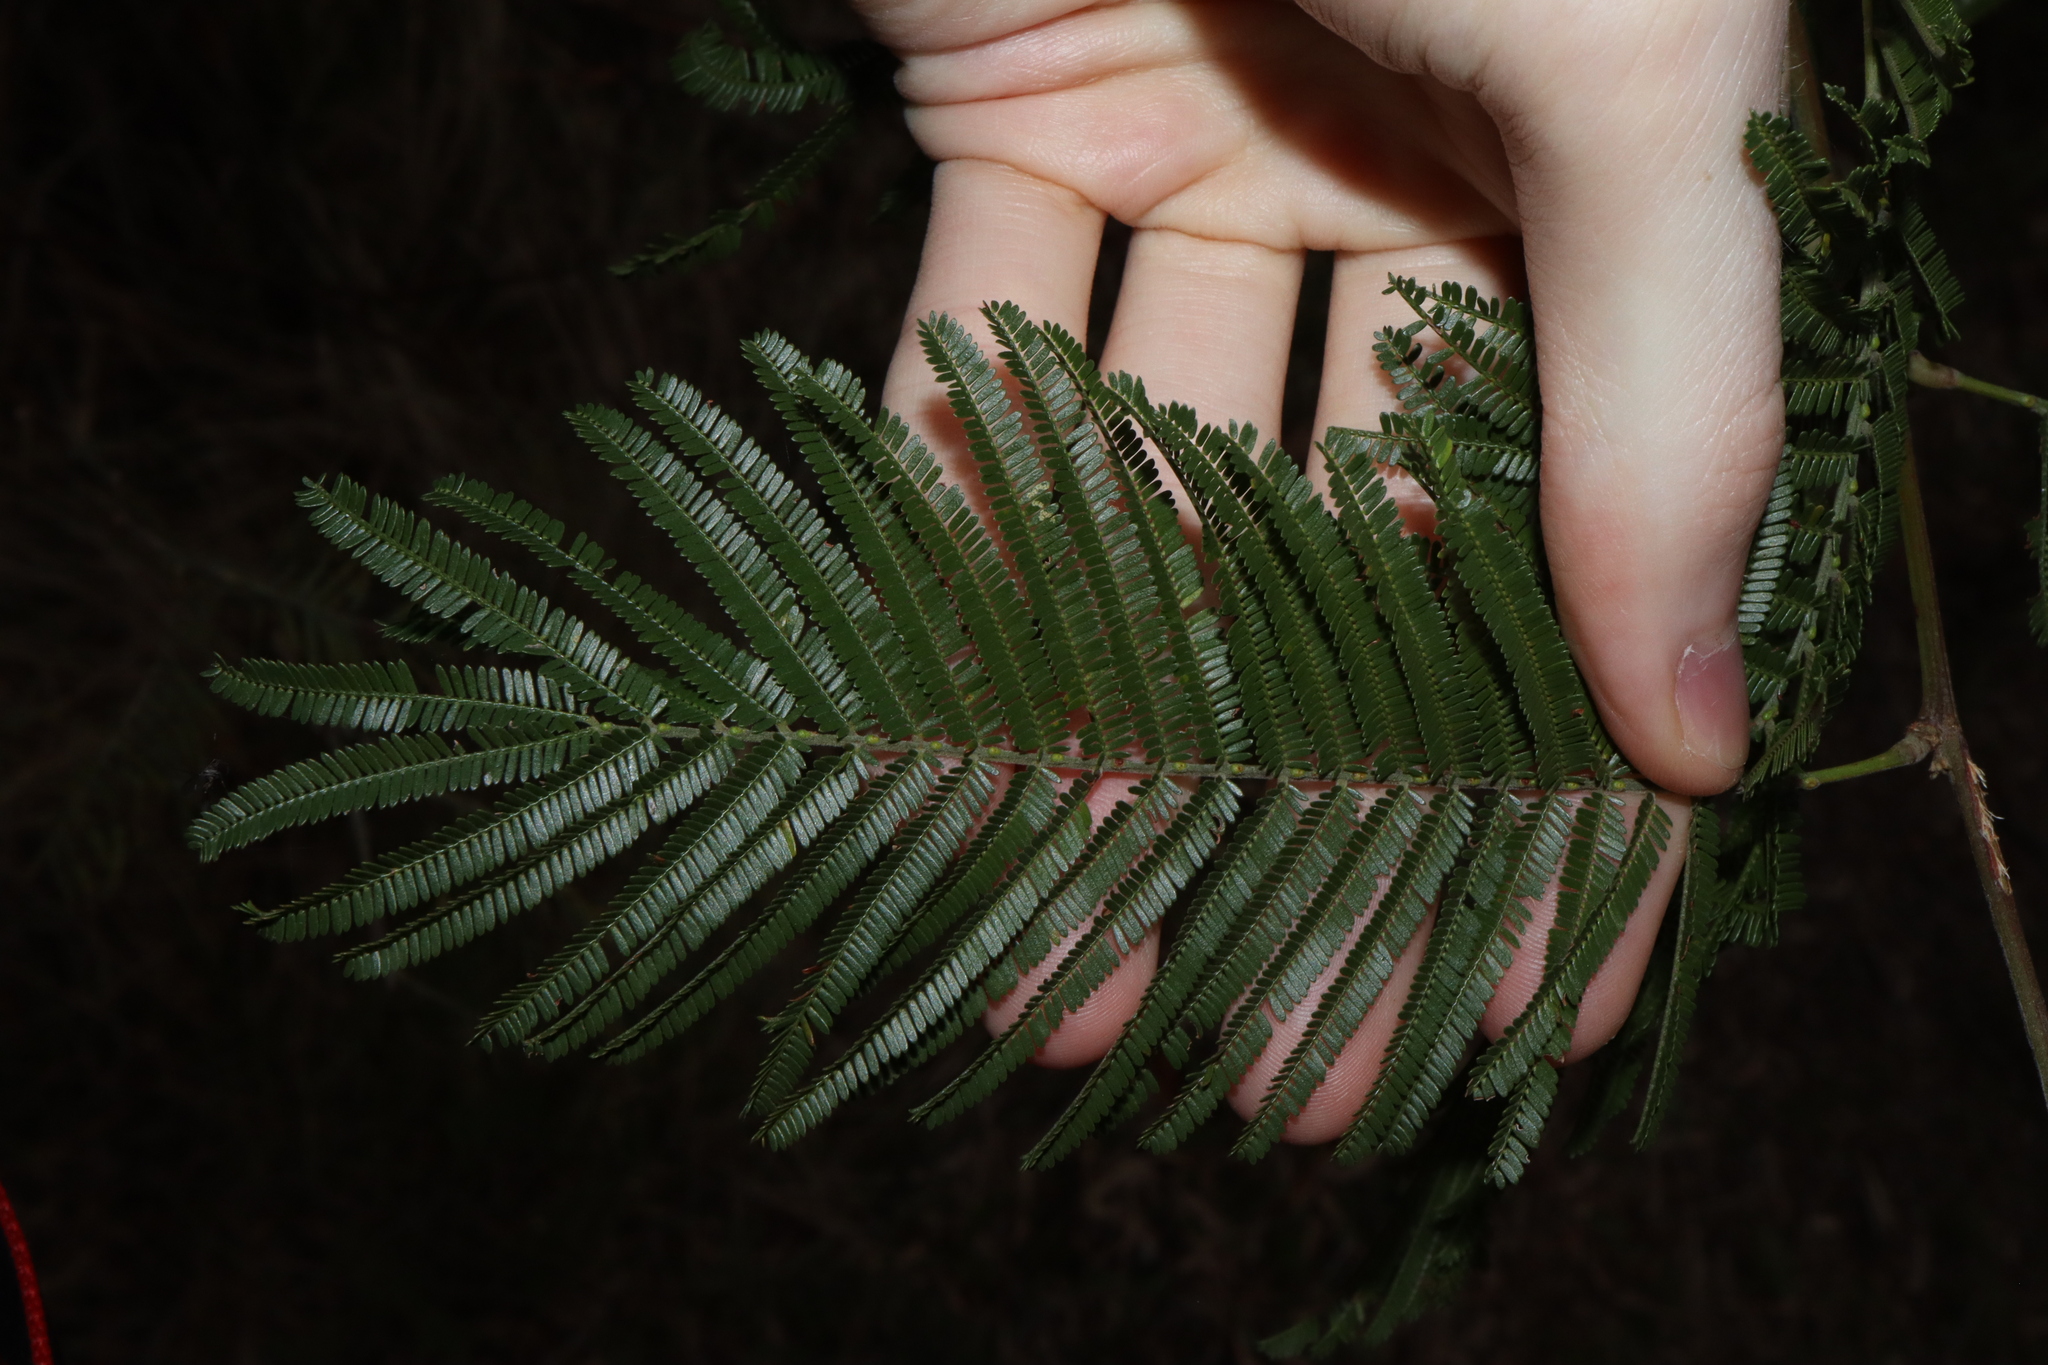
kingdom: Plantae
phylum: Tracheophyta
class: Magnoliopsida
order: Fabales
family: Fabaceae
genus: Acacia
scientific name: Acacia mearnsii
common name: Black wattle
